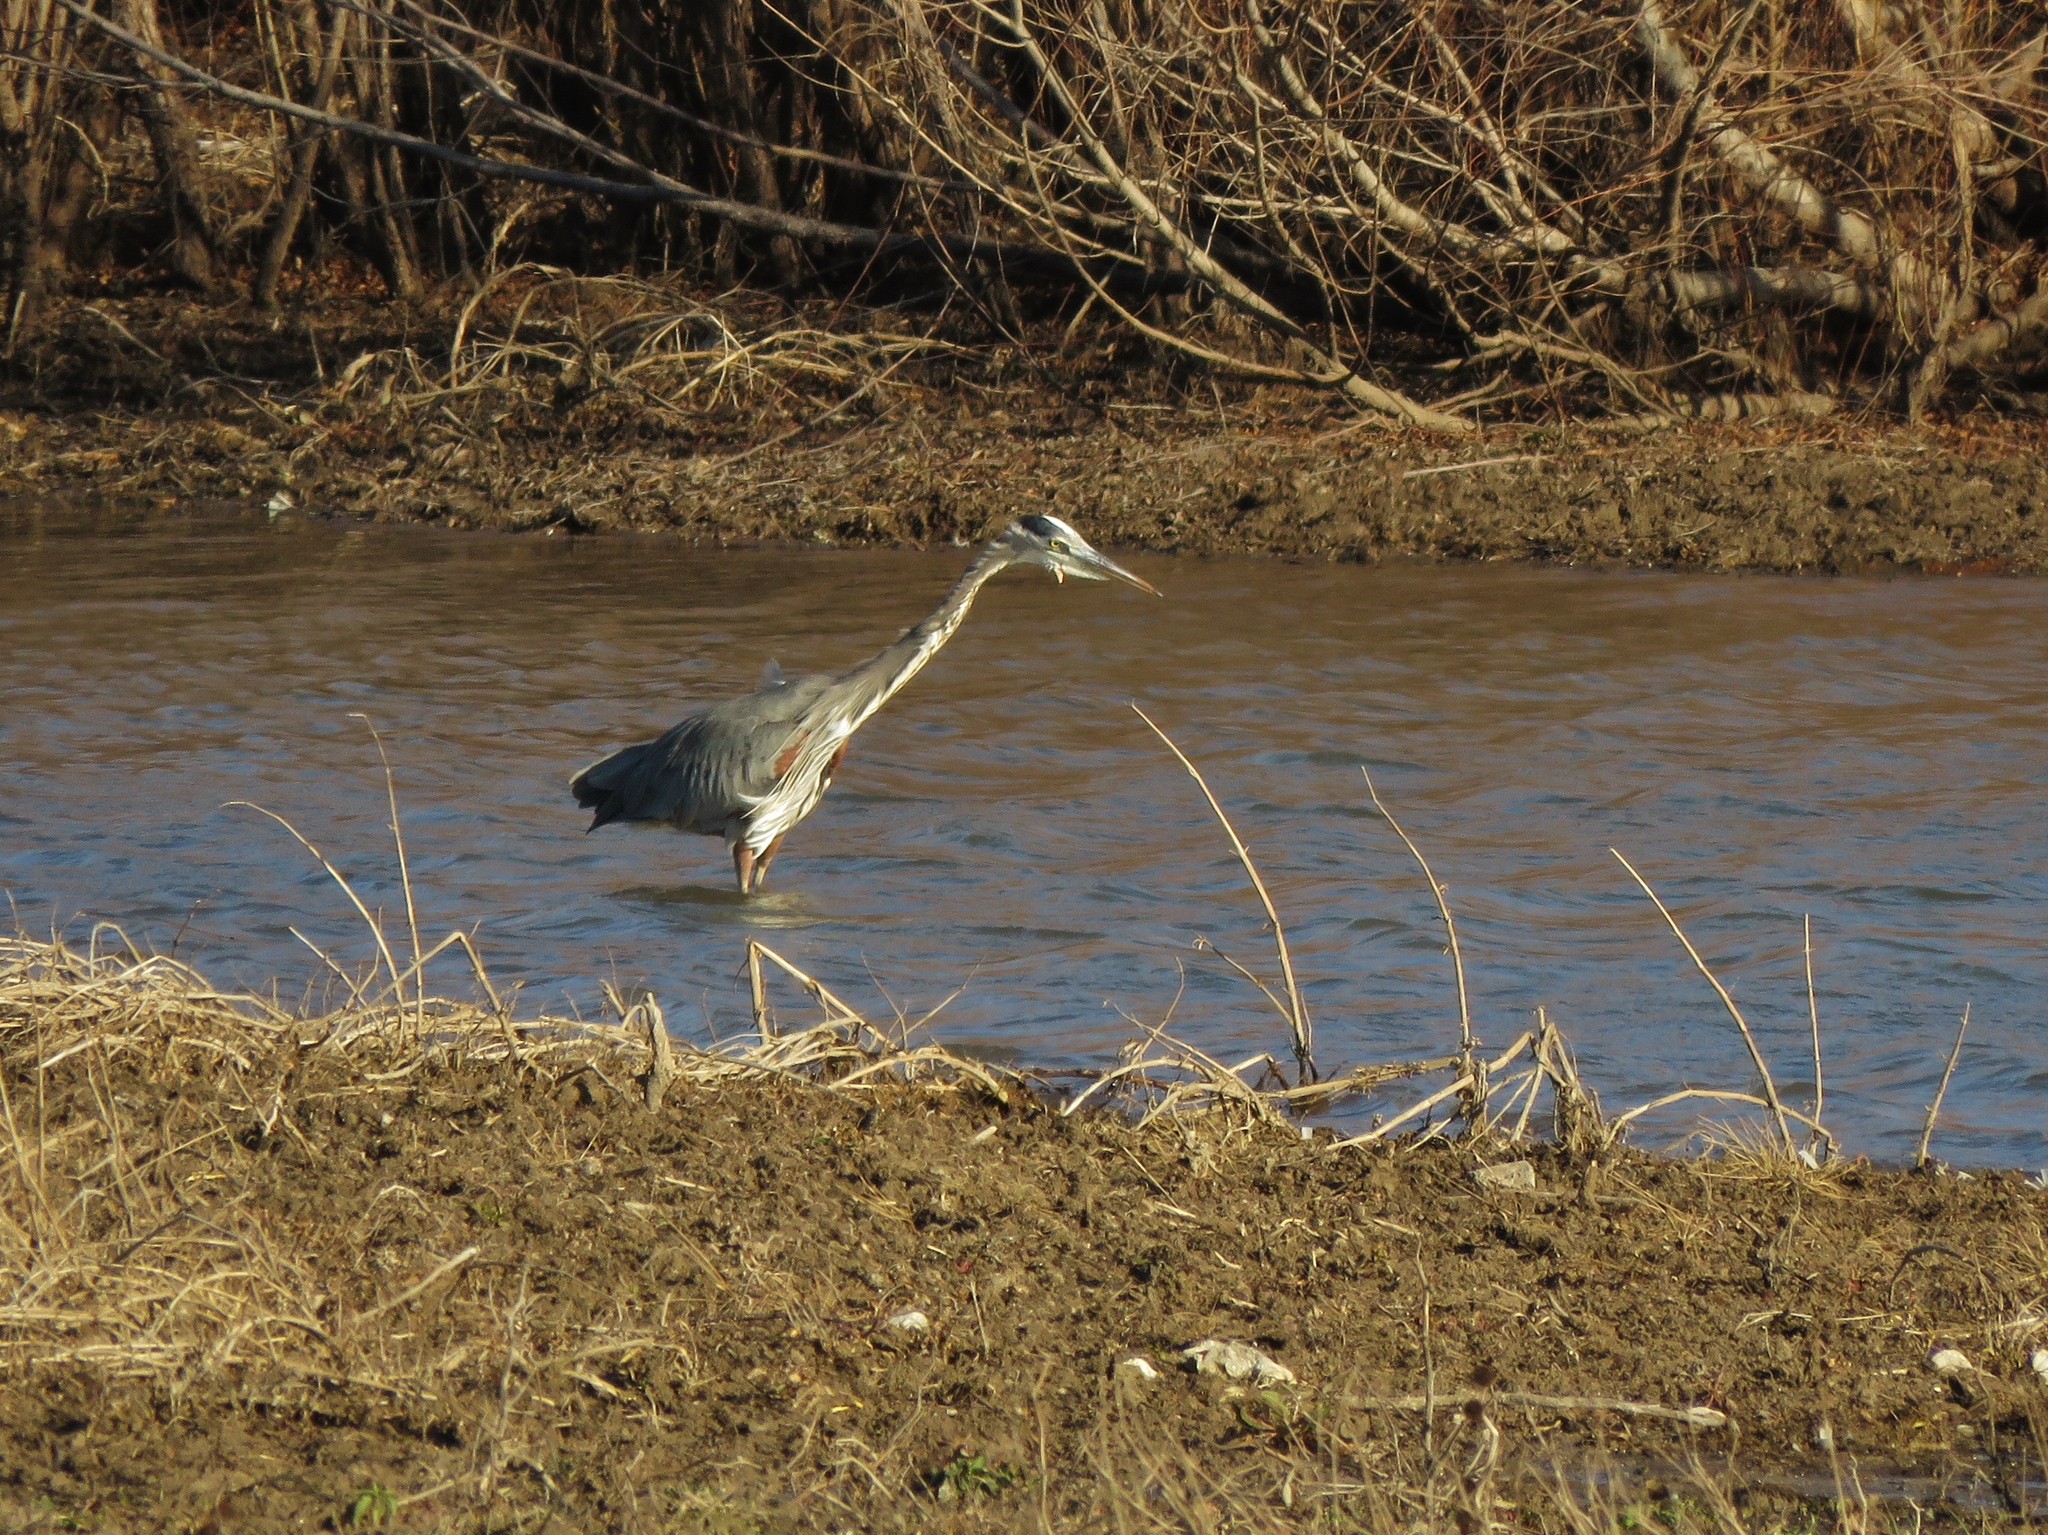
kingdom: Animalia
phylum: Chordata
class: Aves
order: Pelecaniformes
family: Ardeidae
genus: Ardea
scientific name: Ardea herodias
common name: Great blue heron
